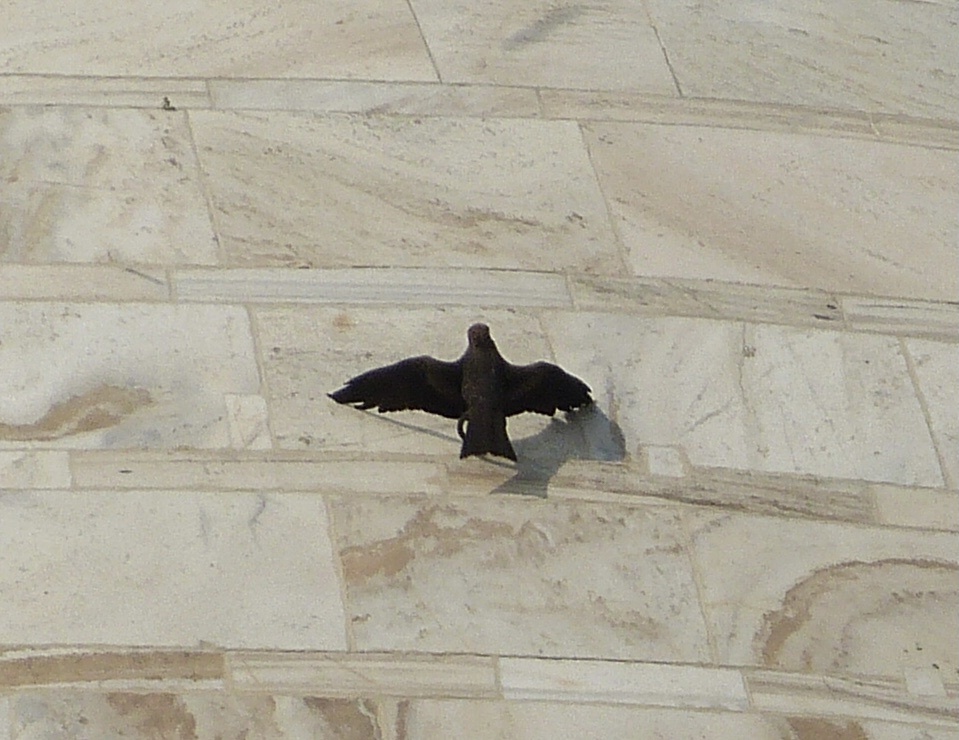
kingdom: Animalia
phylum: Chordata
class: Aves
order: Accipitriformes
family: Accipitridae
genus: Milvus
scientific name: Milvus migrans
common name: Black kite
